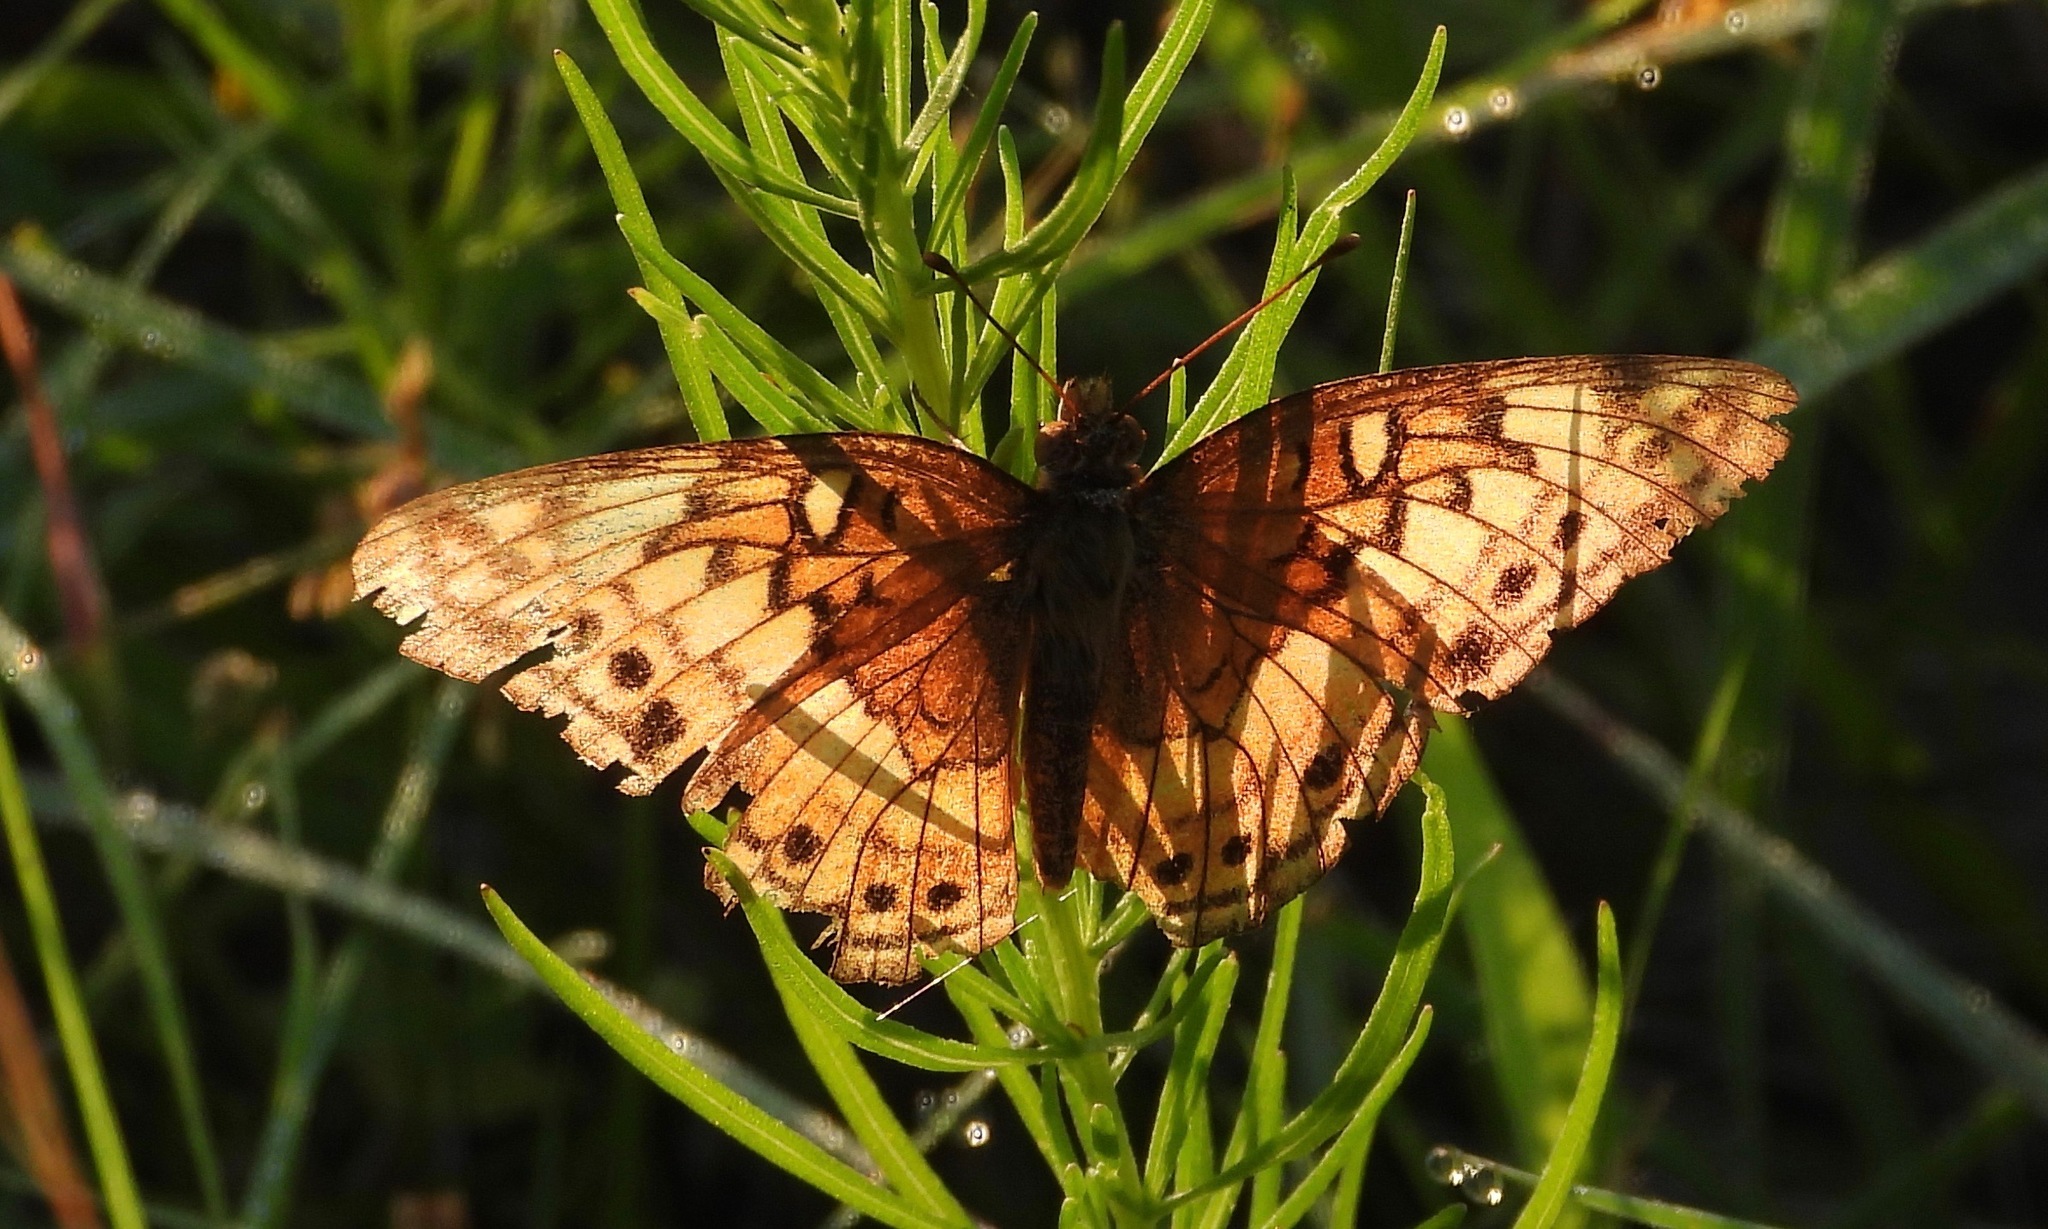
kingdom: Animalia
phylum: Arthropoda
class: Insecta
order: Lepidoptera
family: Nymphalidae
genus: Euptoieta
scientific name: Euptoieta claudia
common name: Variegated fritillary
